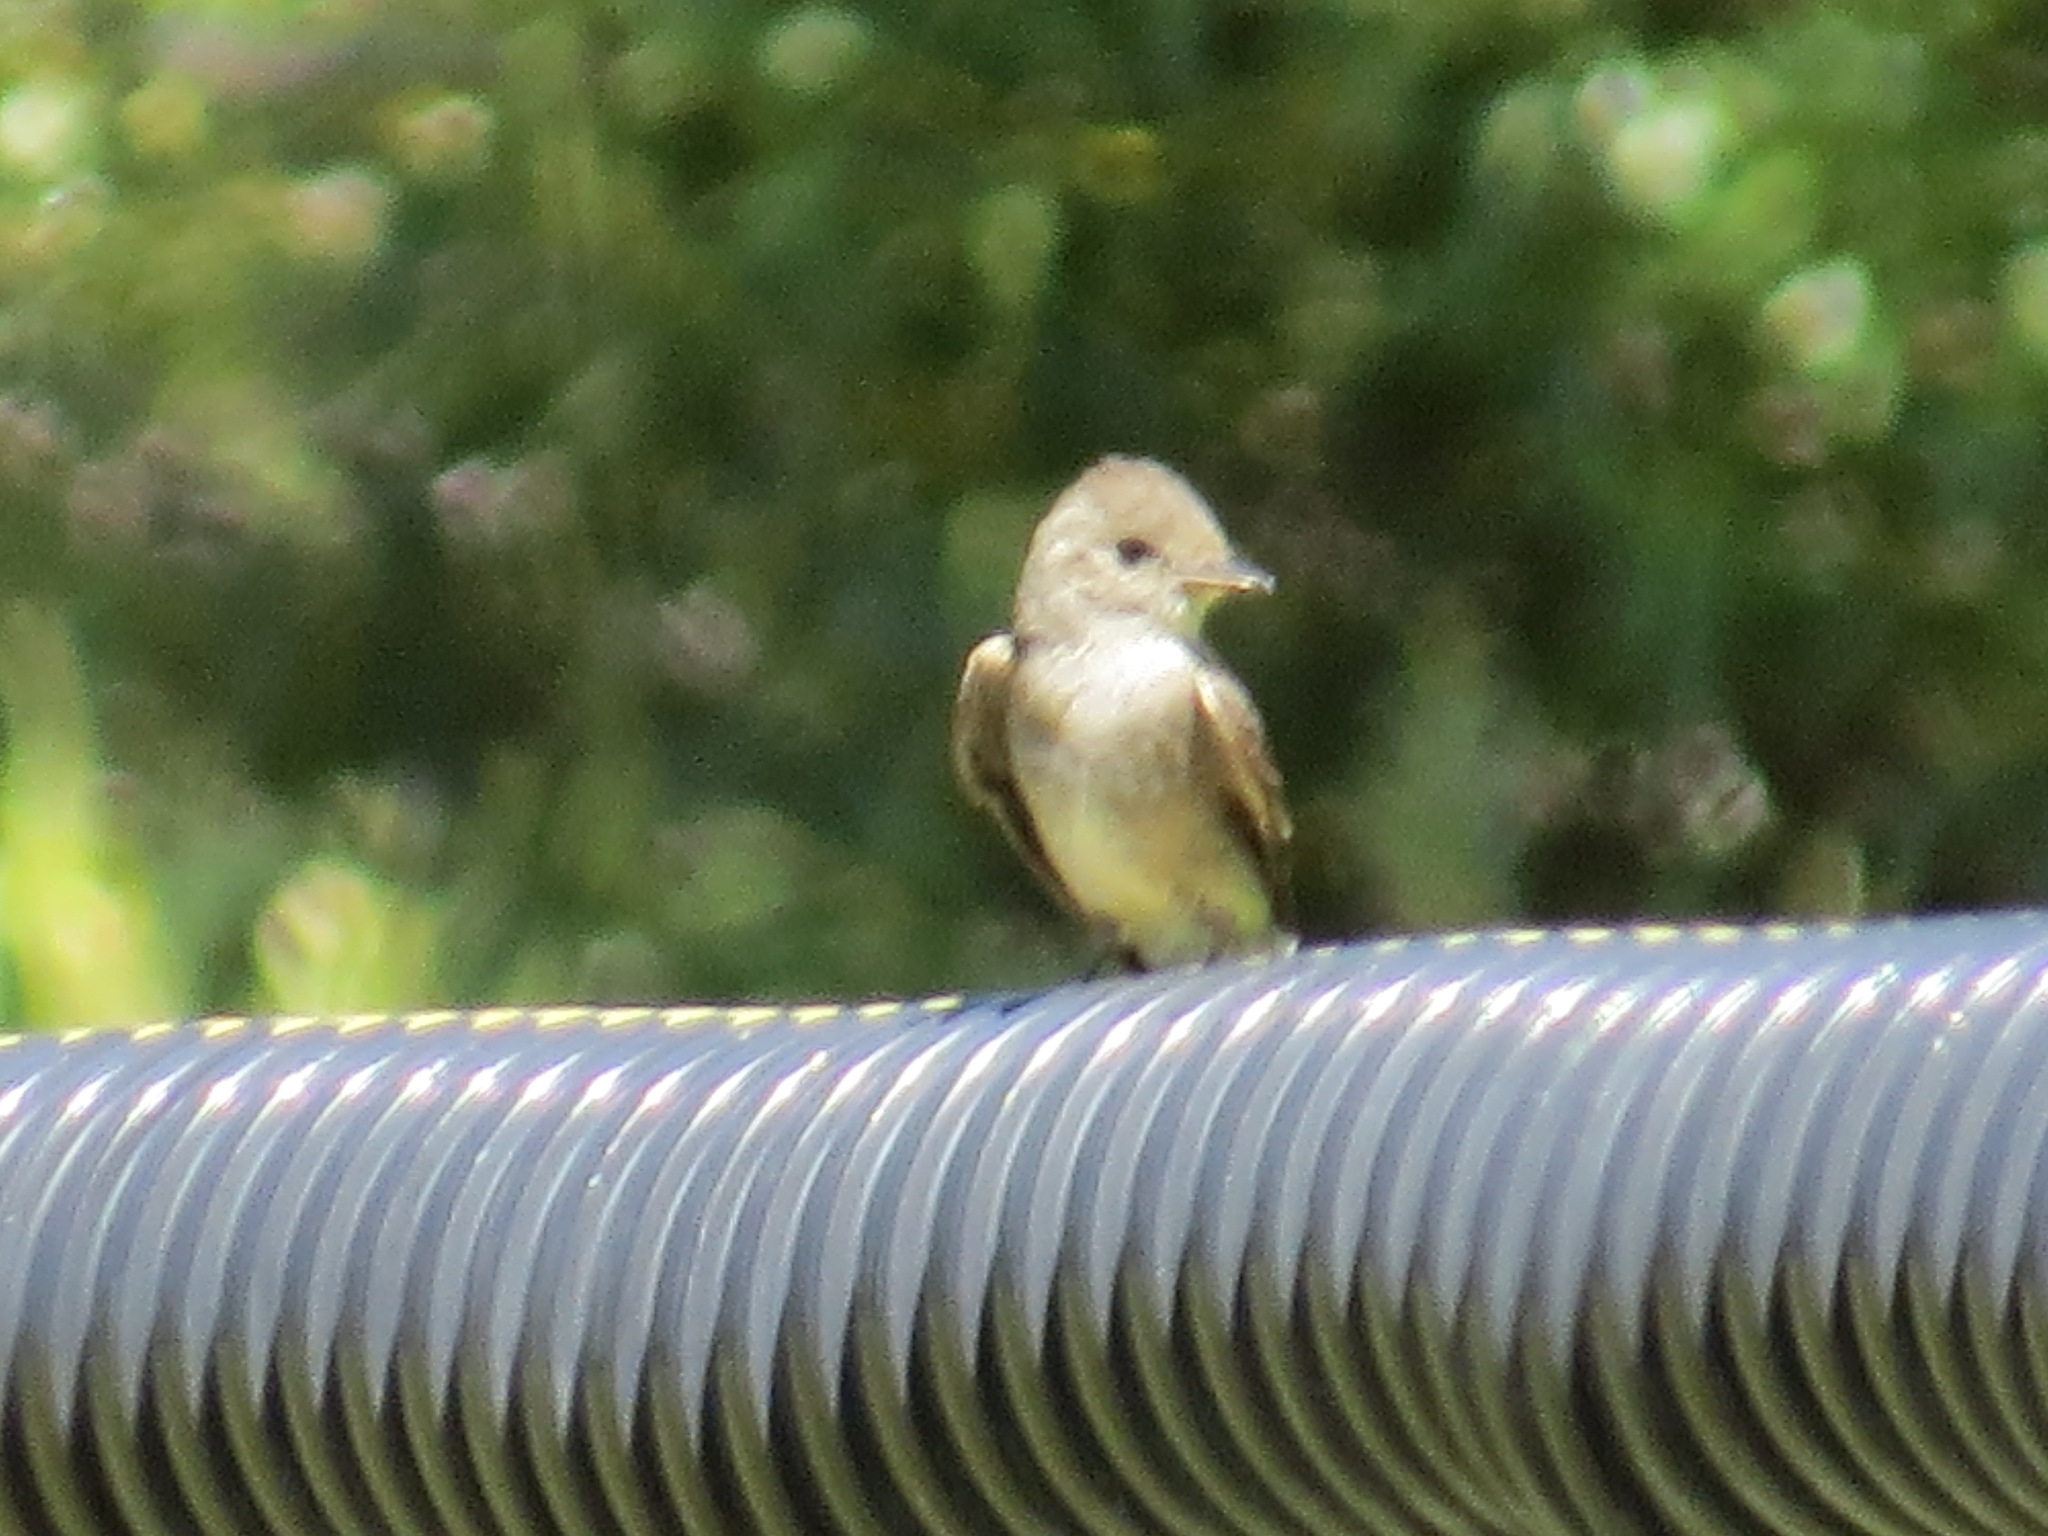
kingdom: Animalia
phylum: Chordata
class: Aves
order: Passeriformes
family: Tyrannidae
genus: Contopus
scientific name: Contopus sordidulus
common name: Western wood-pewee
